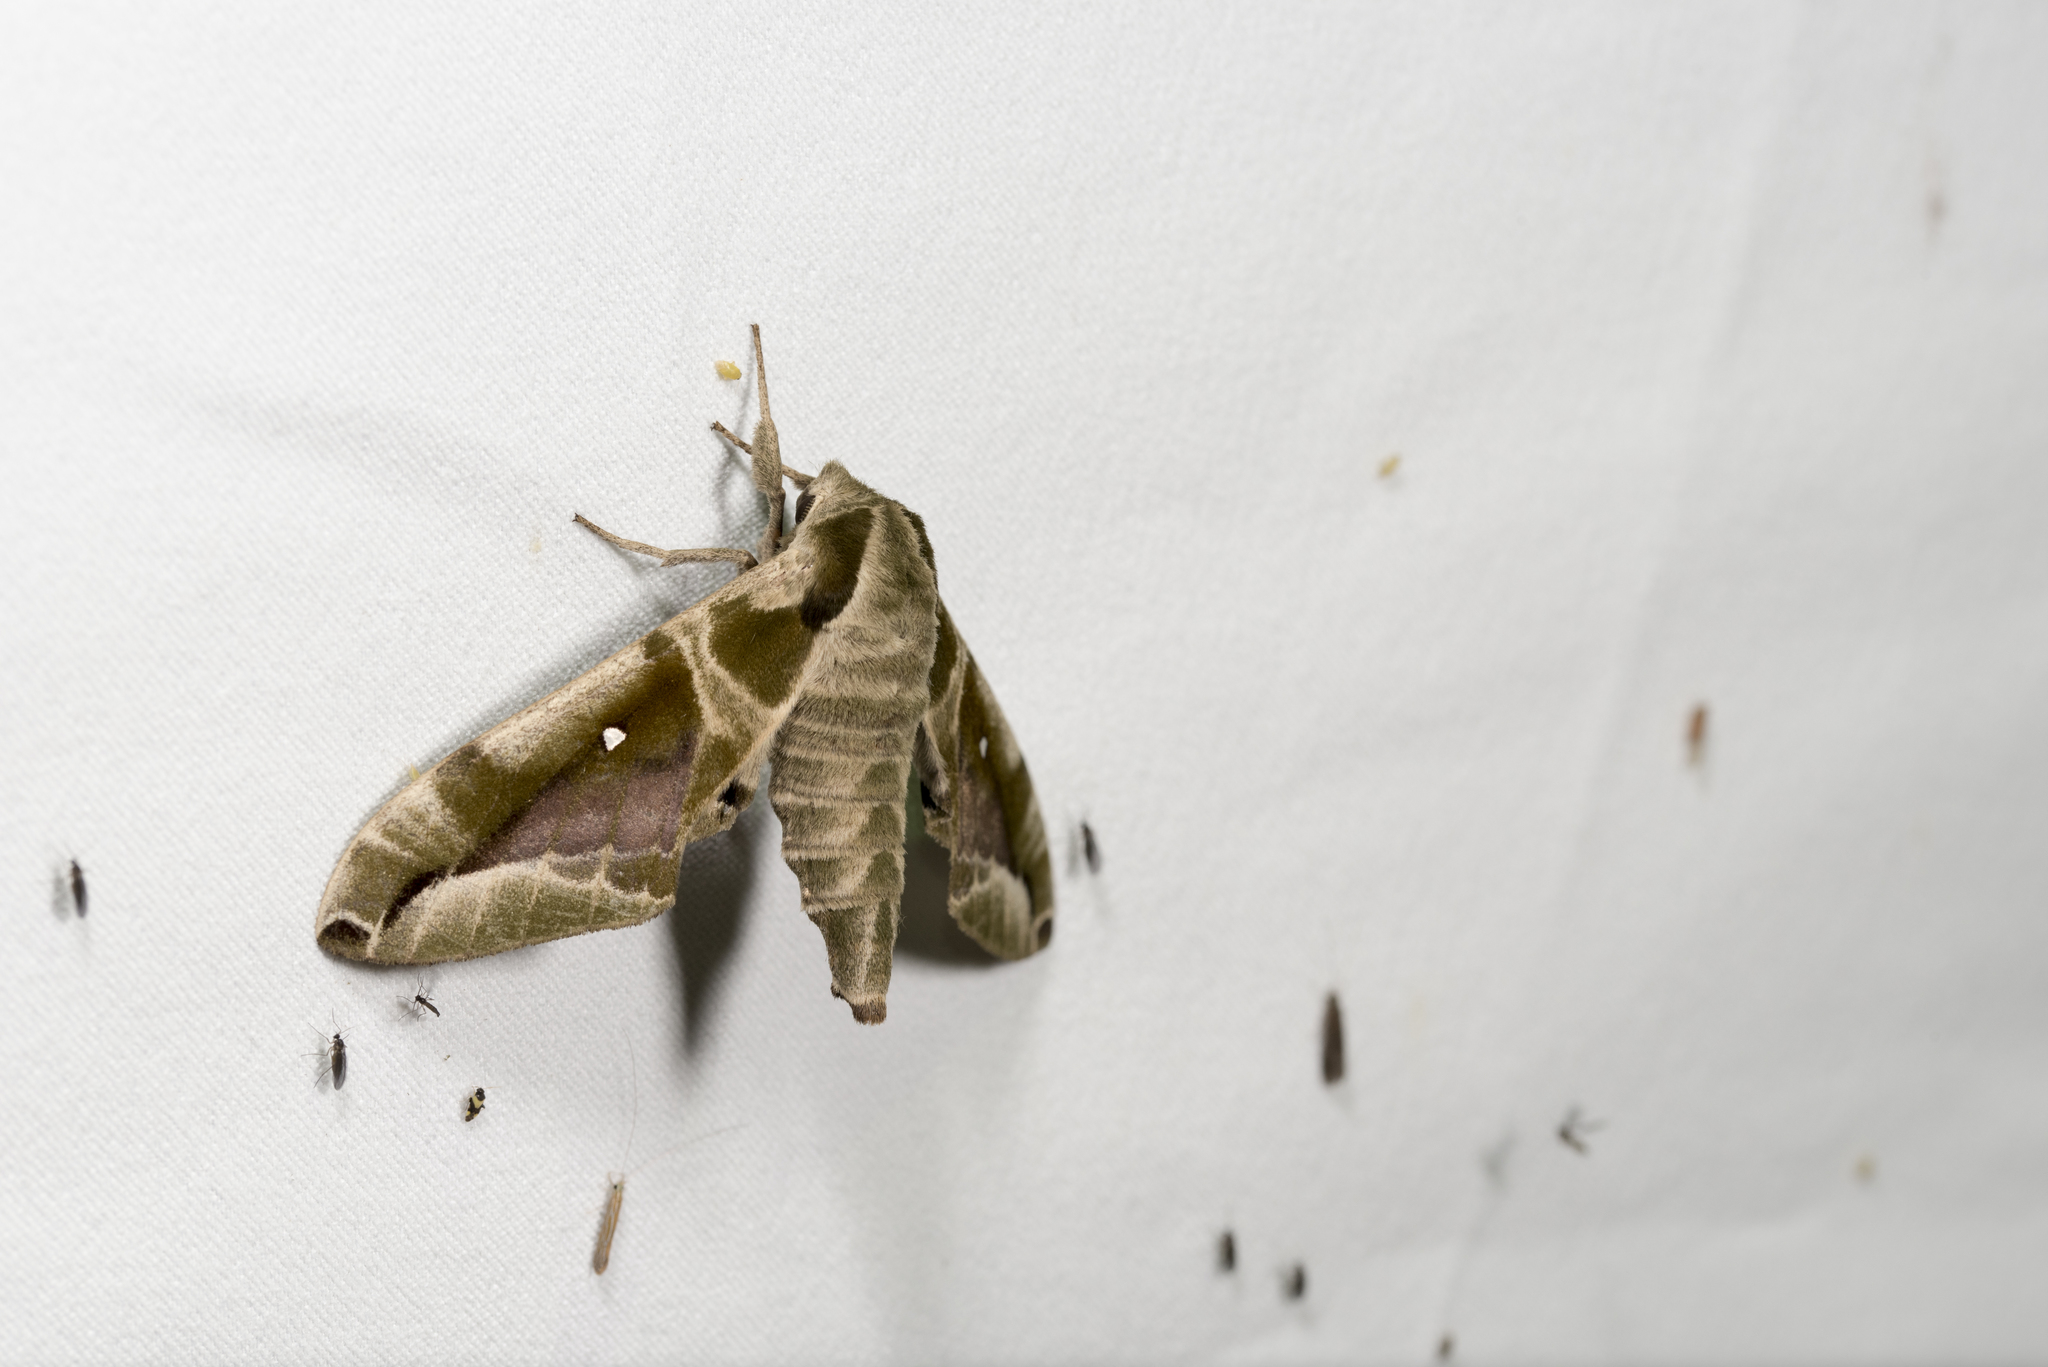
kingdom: Animalia
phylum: Arthropoda
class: Insecta
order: Lepidoptera
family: Sphingidae
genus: Parum
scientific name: Parum colligata
